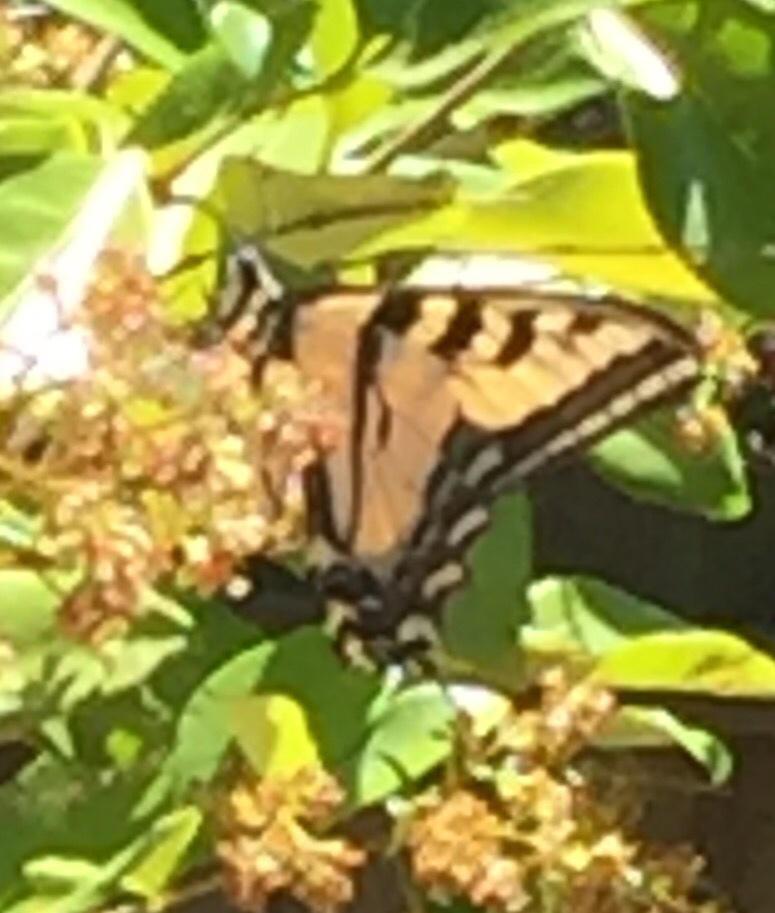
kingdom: Animalia
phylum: Arthropoda
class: Insecta
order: Lepidoptera
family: Papilionidae
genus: Papilio
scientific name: Papilio rutulus
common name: Western tiger swallowtail
